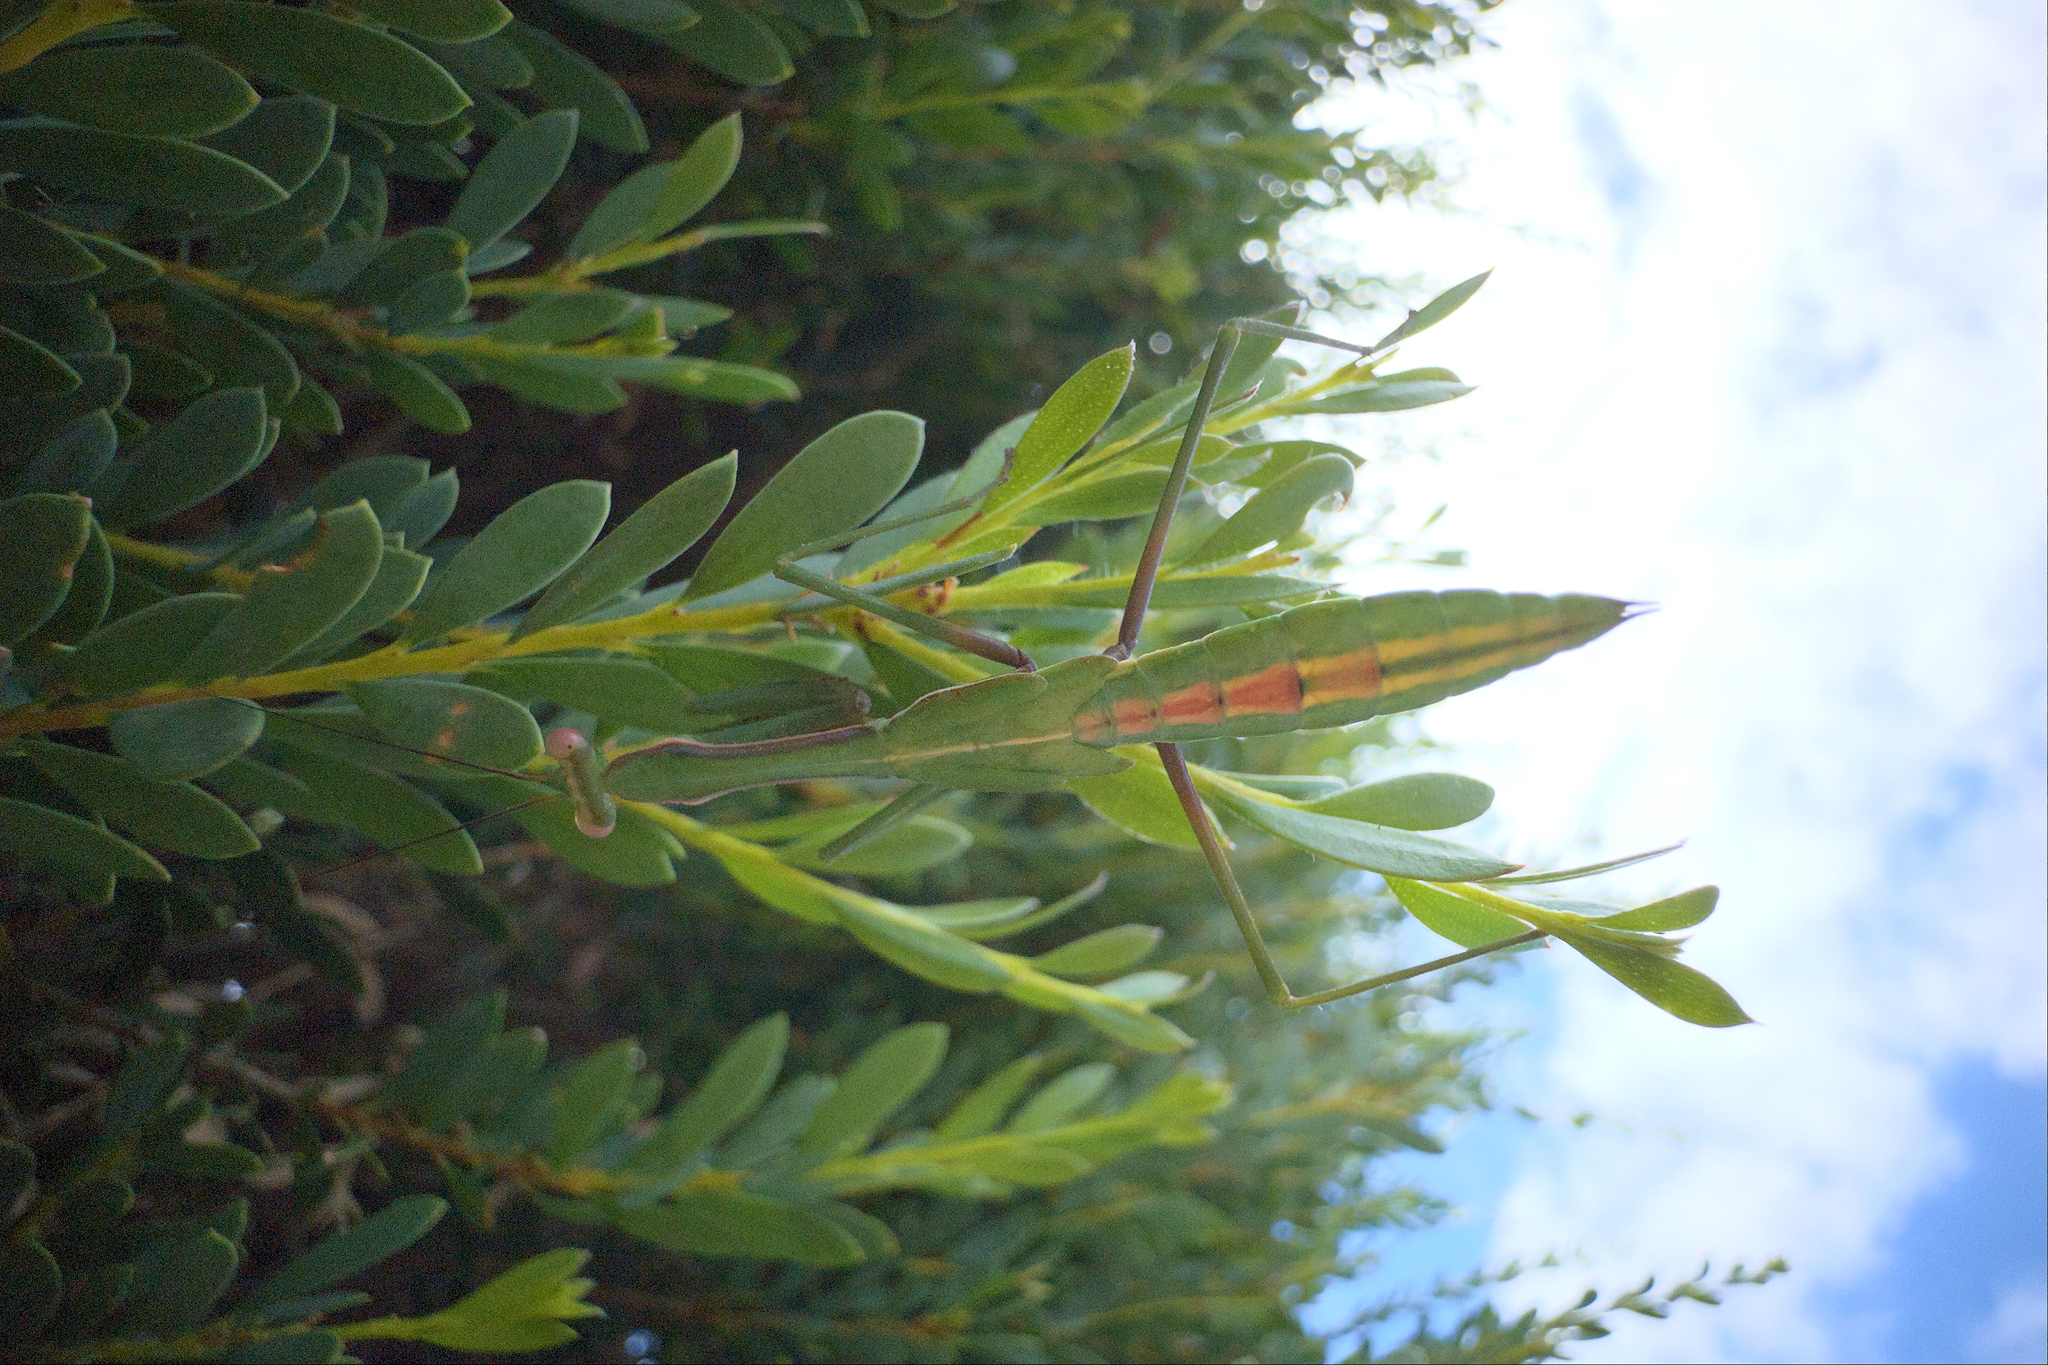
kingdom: Animalia
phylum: Arthropoda
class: Insecta
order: Mantodea
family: Mantidae
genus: Pseudomantis
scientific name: Pseudomantis albofimbriata
